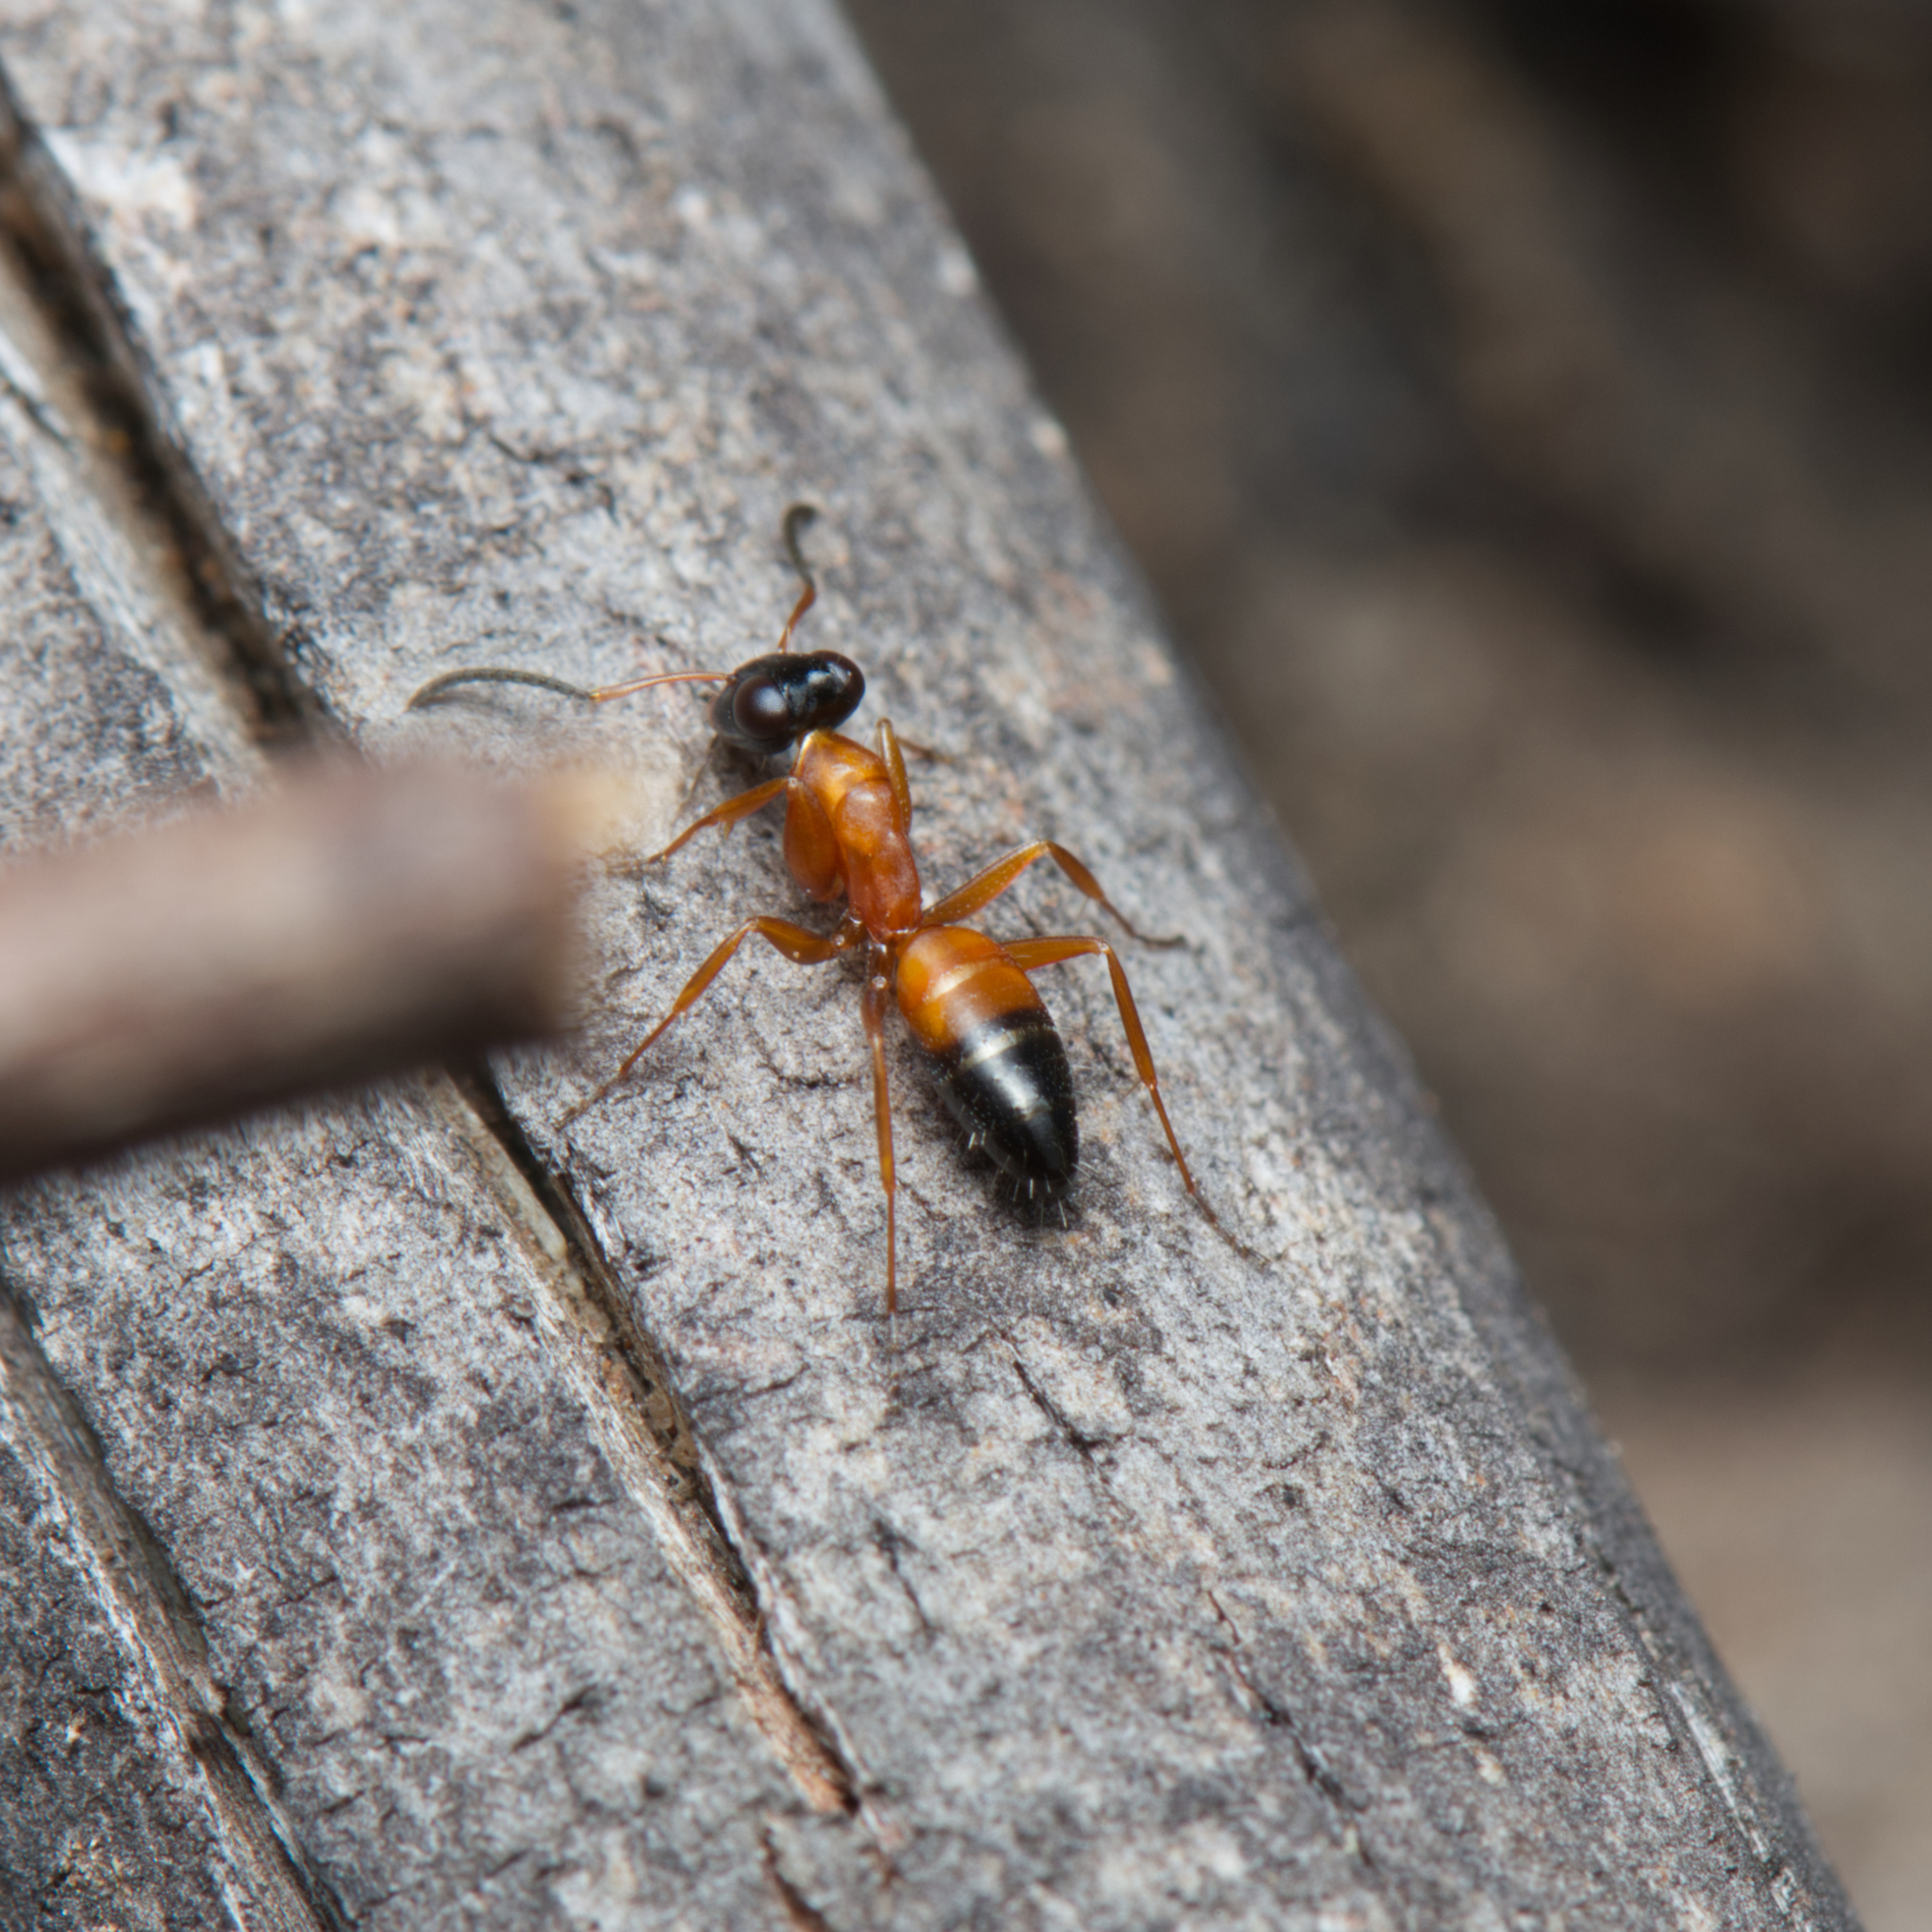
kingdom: Animalia
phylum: Arthropoda
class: Insecta
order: Hymenoptera
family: Formicidae
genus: Opisthopsis
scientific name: Opisthopsis rufithorax
